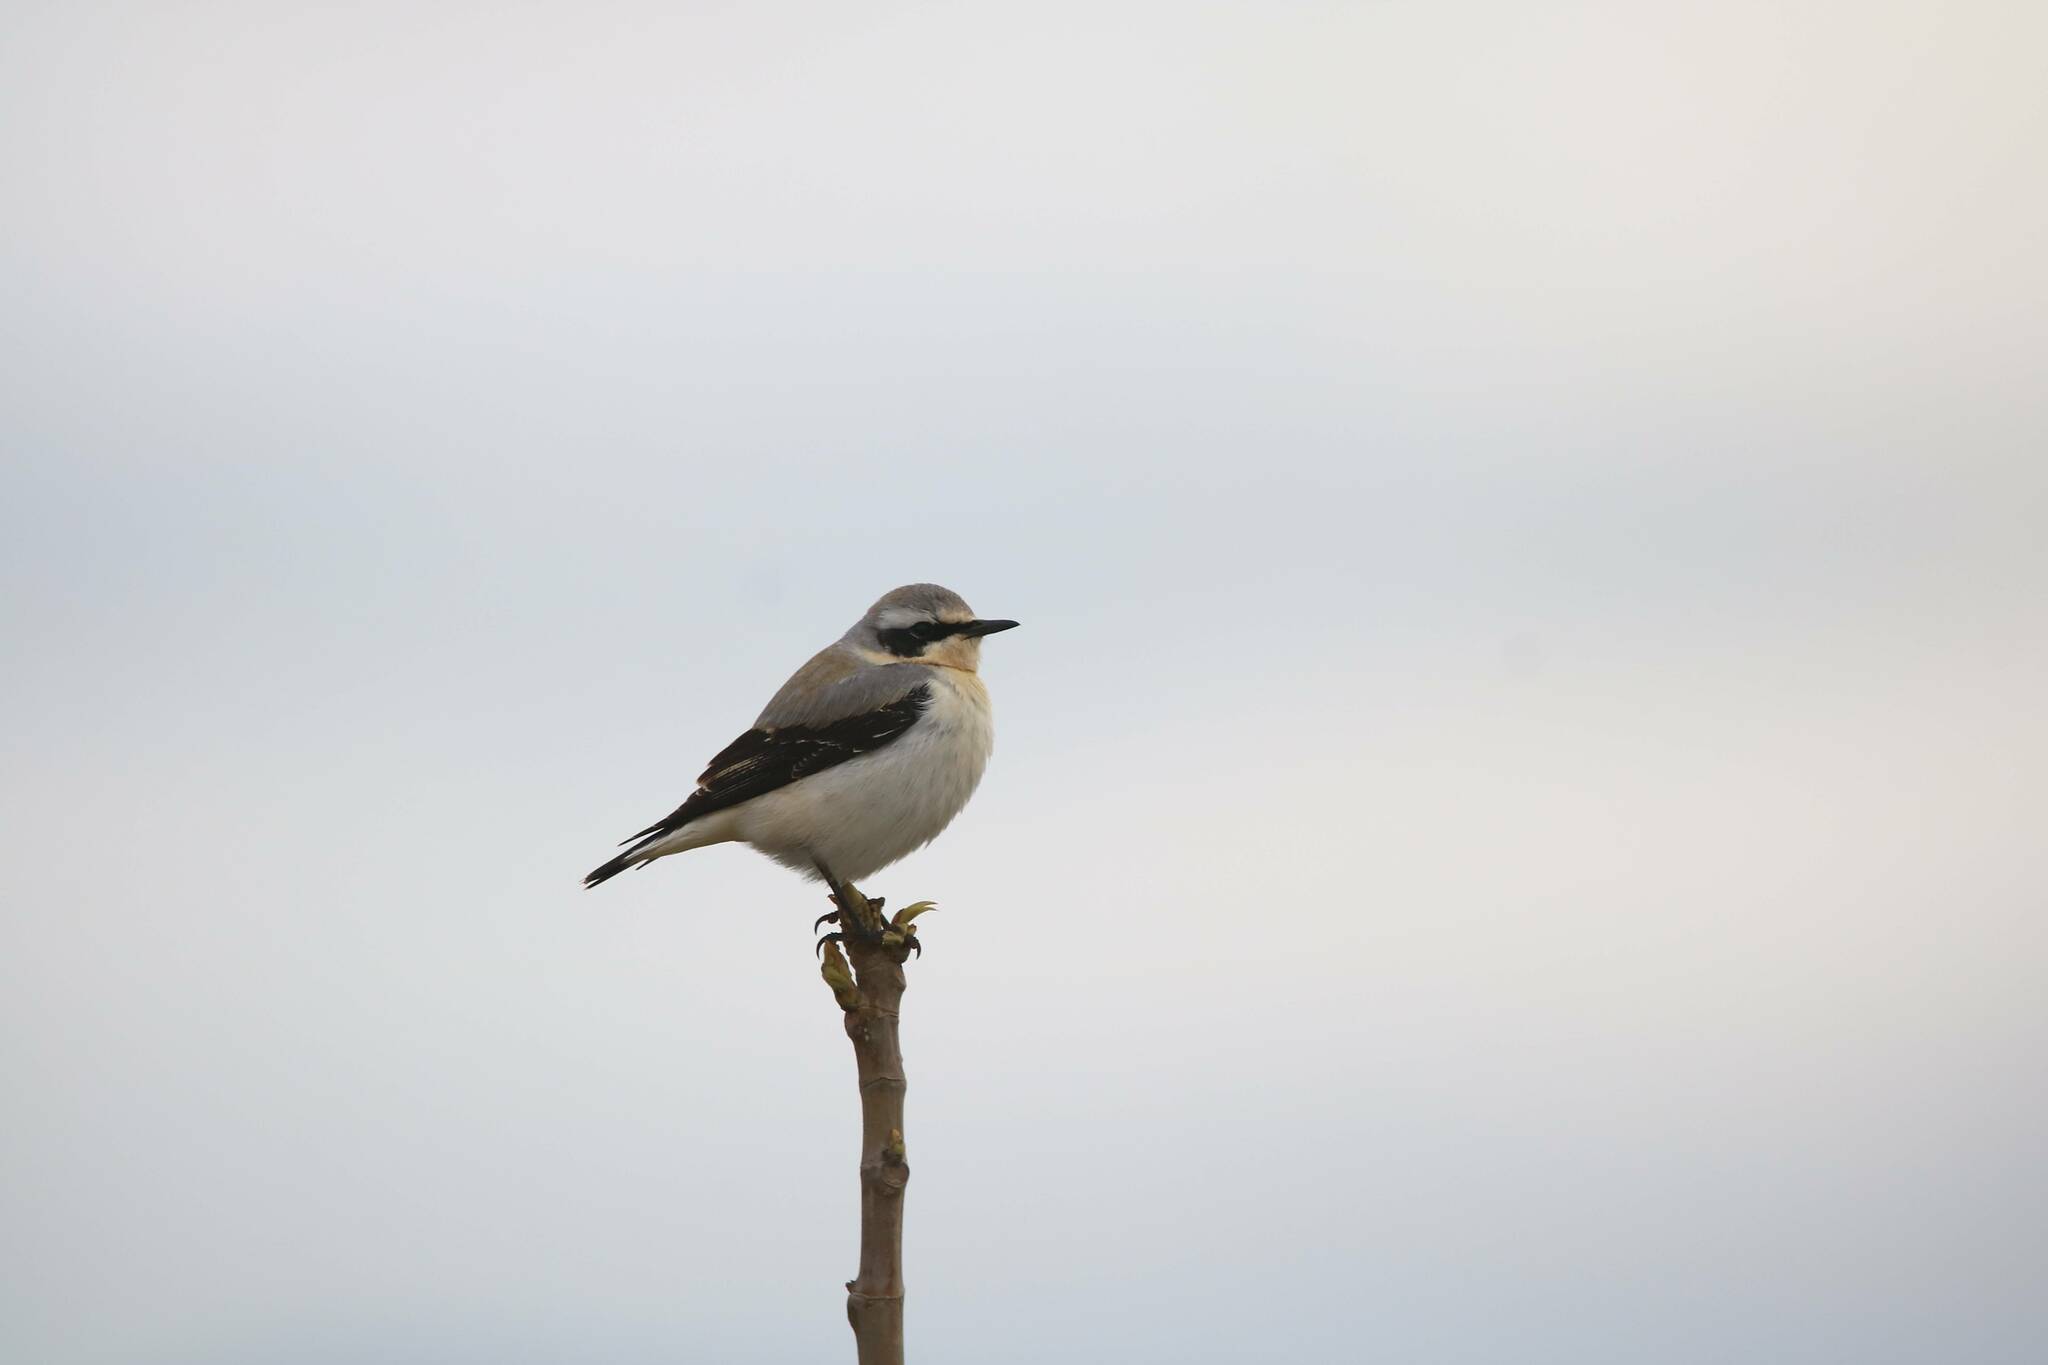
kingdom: Animalia
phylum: Chordata
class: Aves
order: Passeriformes
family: Muscicapidae
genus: Oenanthe
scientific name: Oenanthe oenanthe
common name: Northern wheatear
